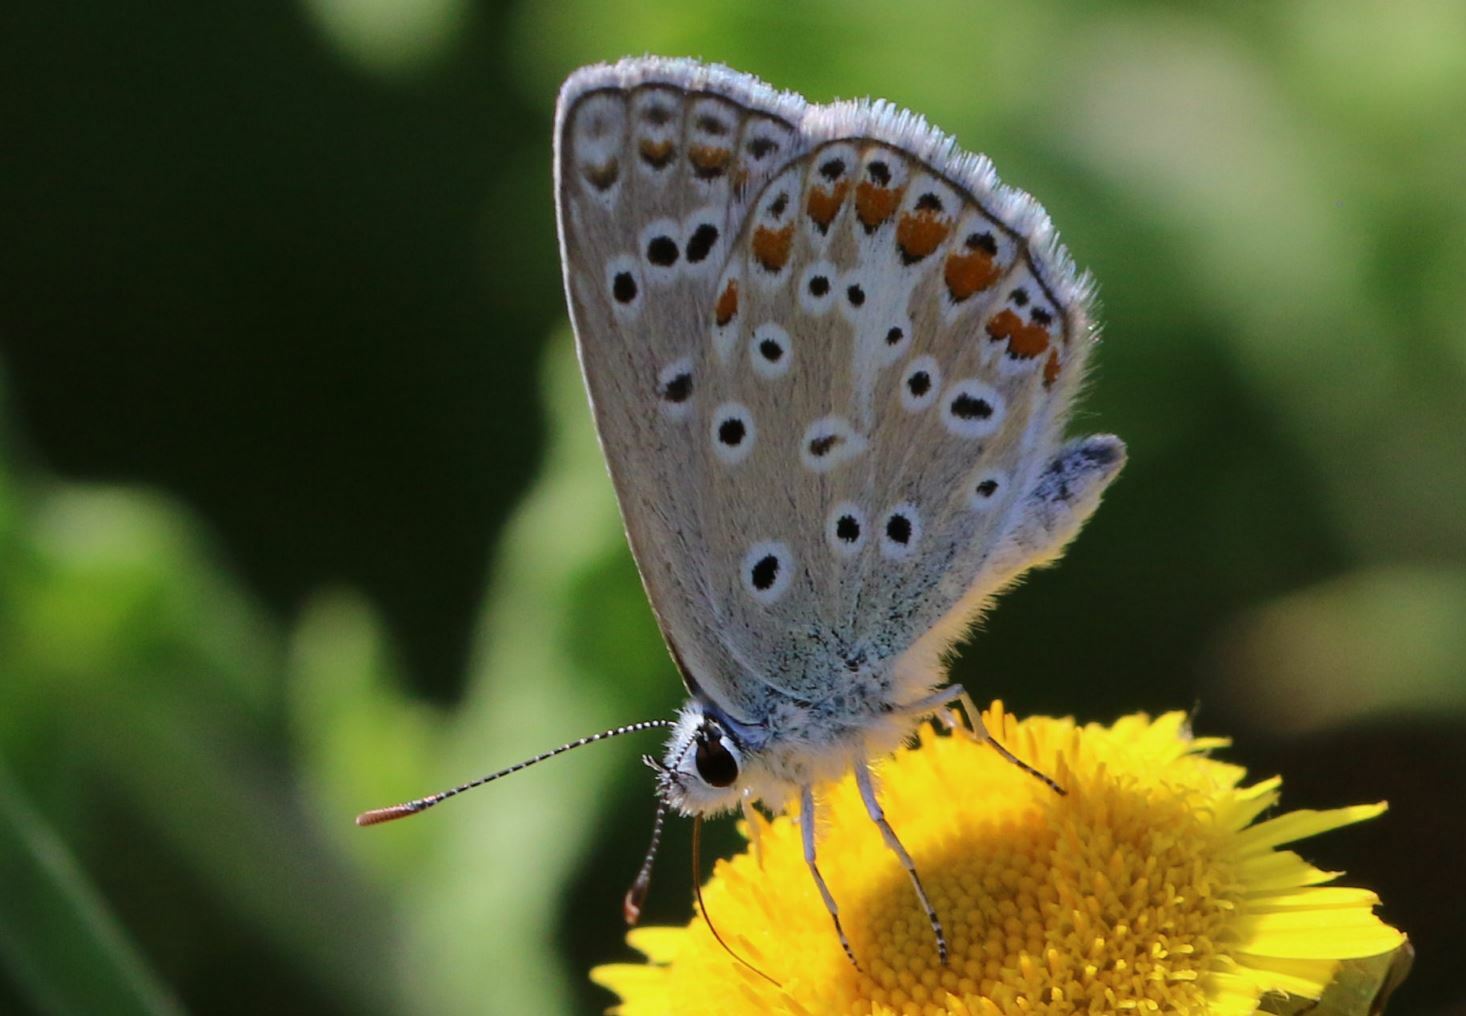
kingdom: Animalia
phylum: Arthropoda
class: Insecta
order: Lepidoptera
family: Lycaenidae
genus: Polyommatus
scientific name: Polyommatus icarus
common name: Common blue
